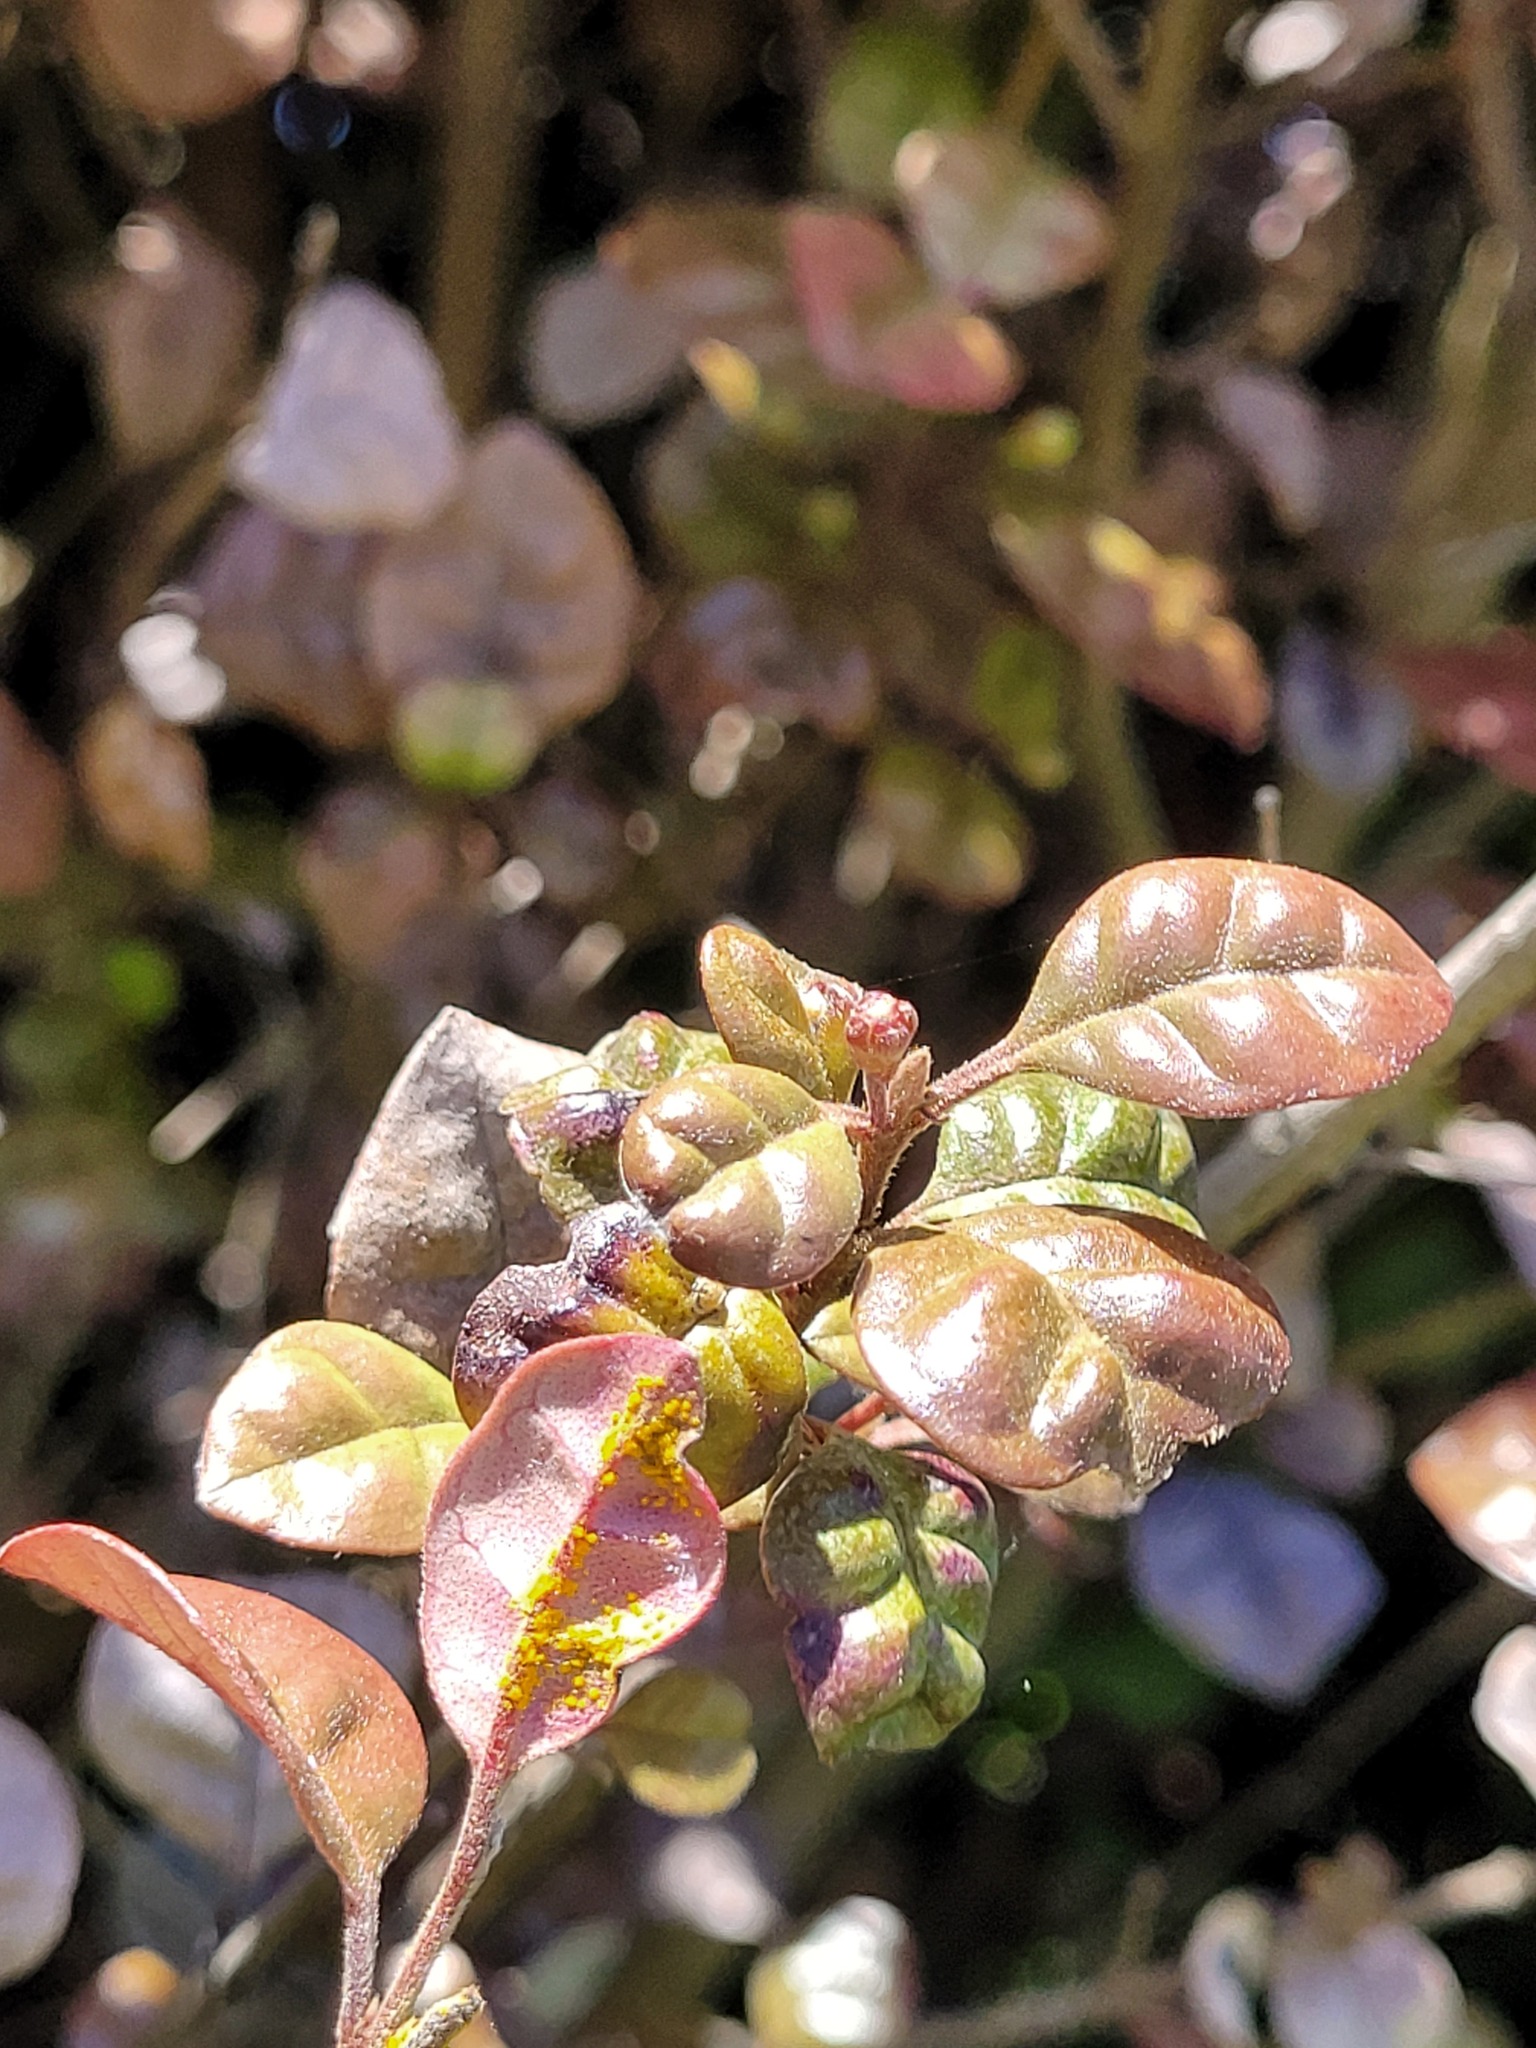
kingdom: Fungi
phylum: Basidiomycota
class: Pucciniomycetes
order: Pucciniales
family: Sphaerophragmiaceae
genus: Austropuccinia
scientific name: Austropuccinia psidii
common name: Myrtle rust
